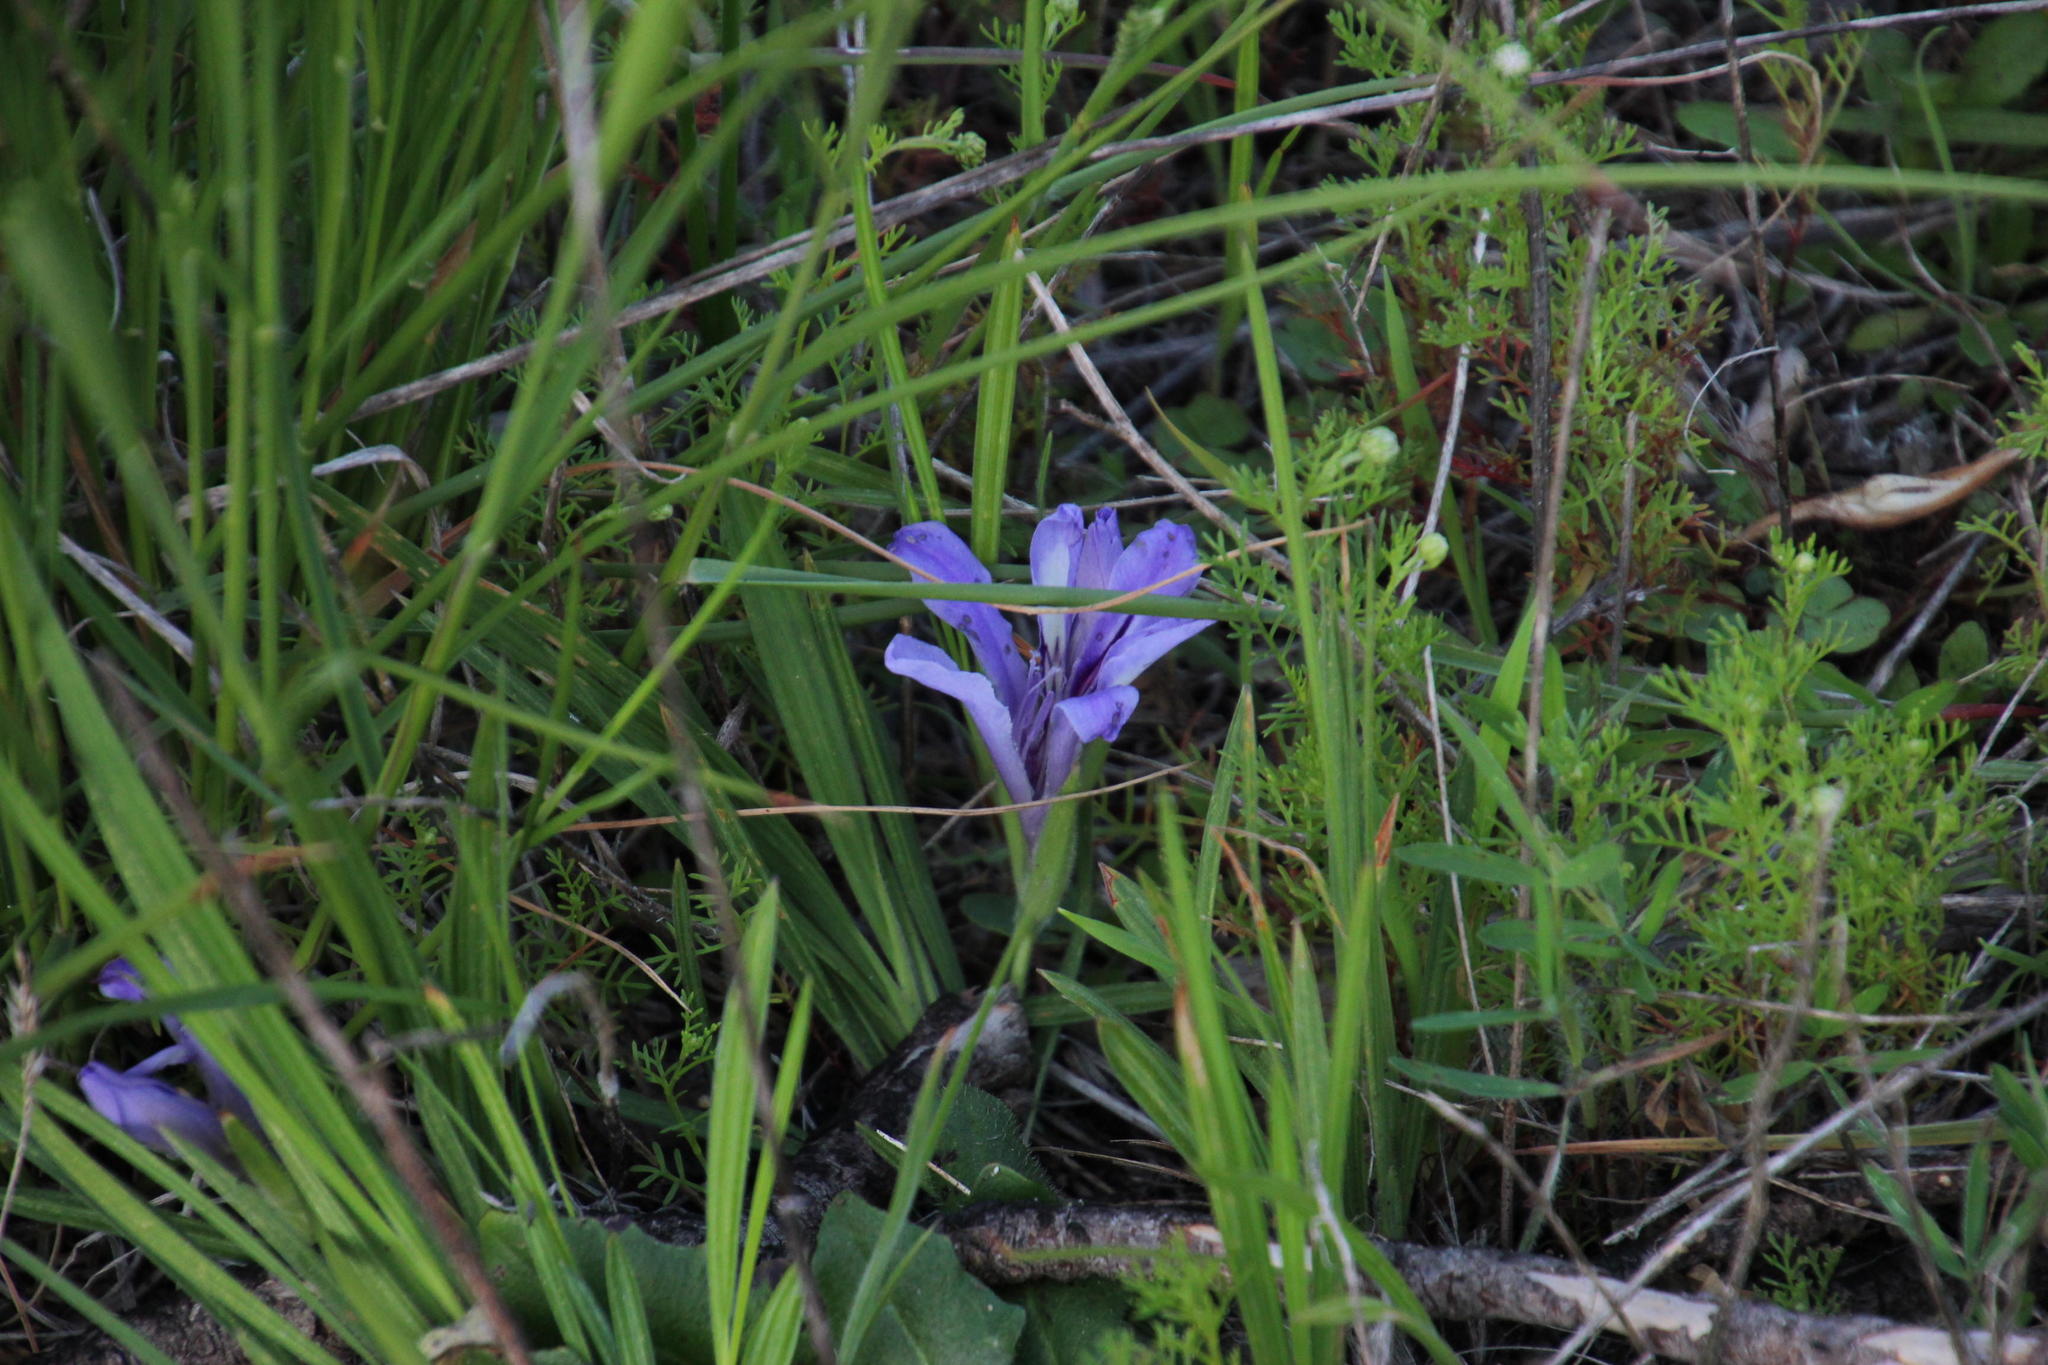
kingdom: Plantae
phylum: Tracheophyta
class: Liliopsida
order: Asparagales
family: Iridaceae
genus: Babiana
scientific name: Babiana ambigua
